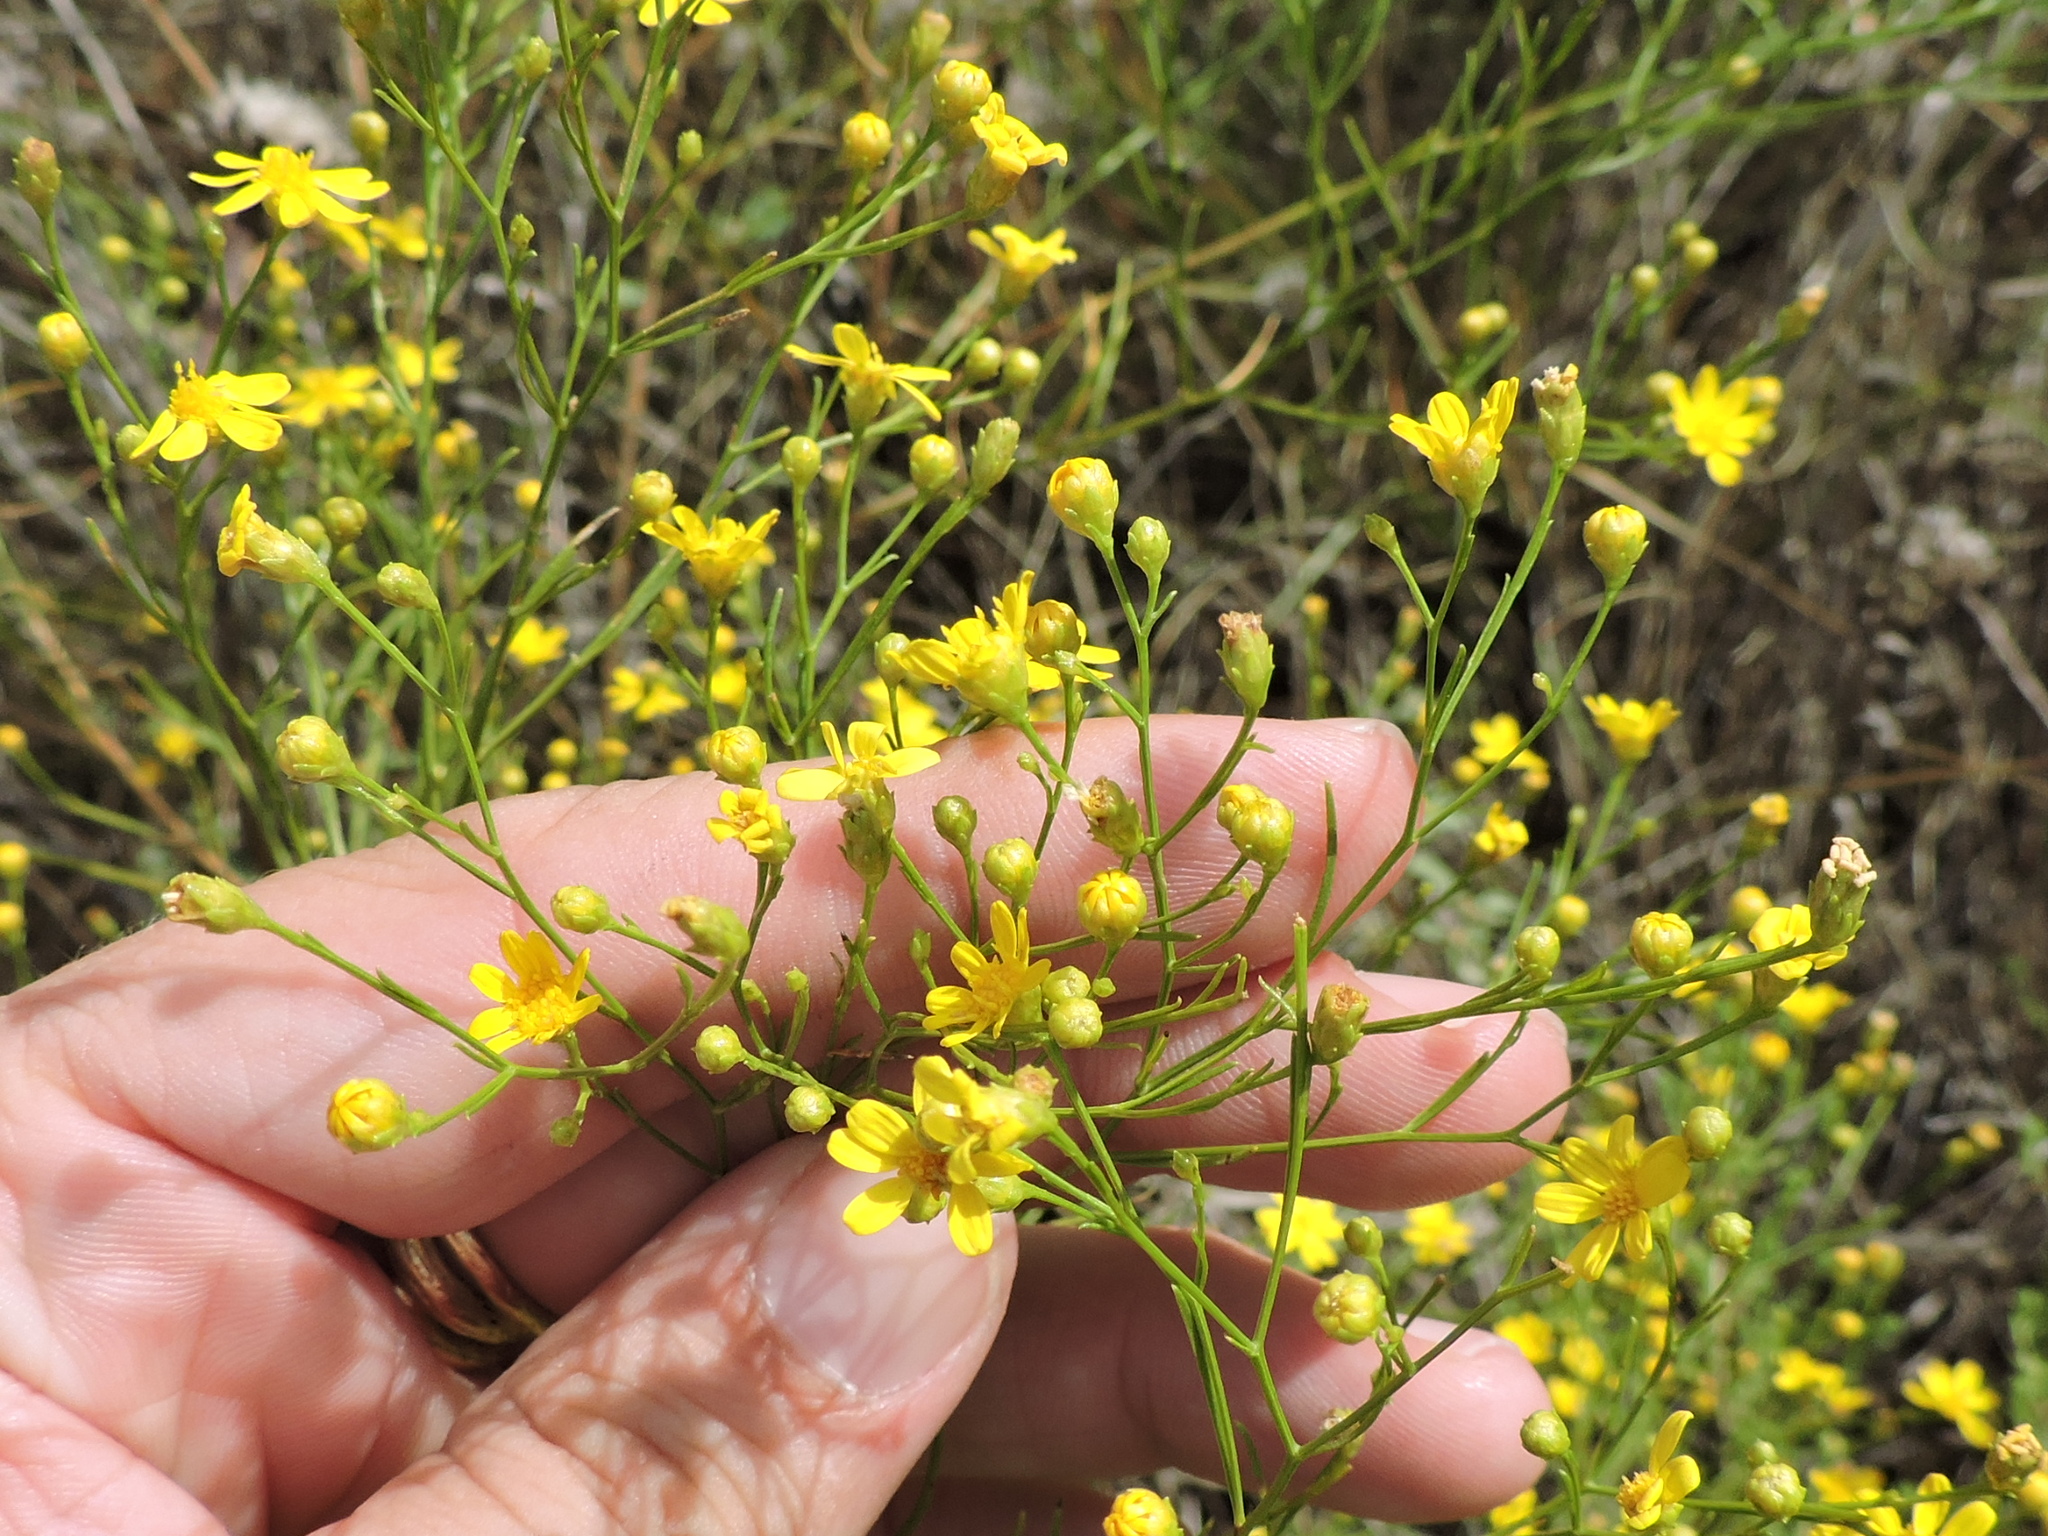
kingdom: Plantae
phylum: Tracheophyta
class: Magnoliopsida
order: Asterales
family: Asteraceae
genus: Amphiachyris
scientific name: Amphiachyris dracunculoides
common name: Broomweed
